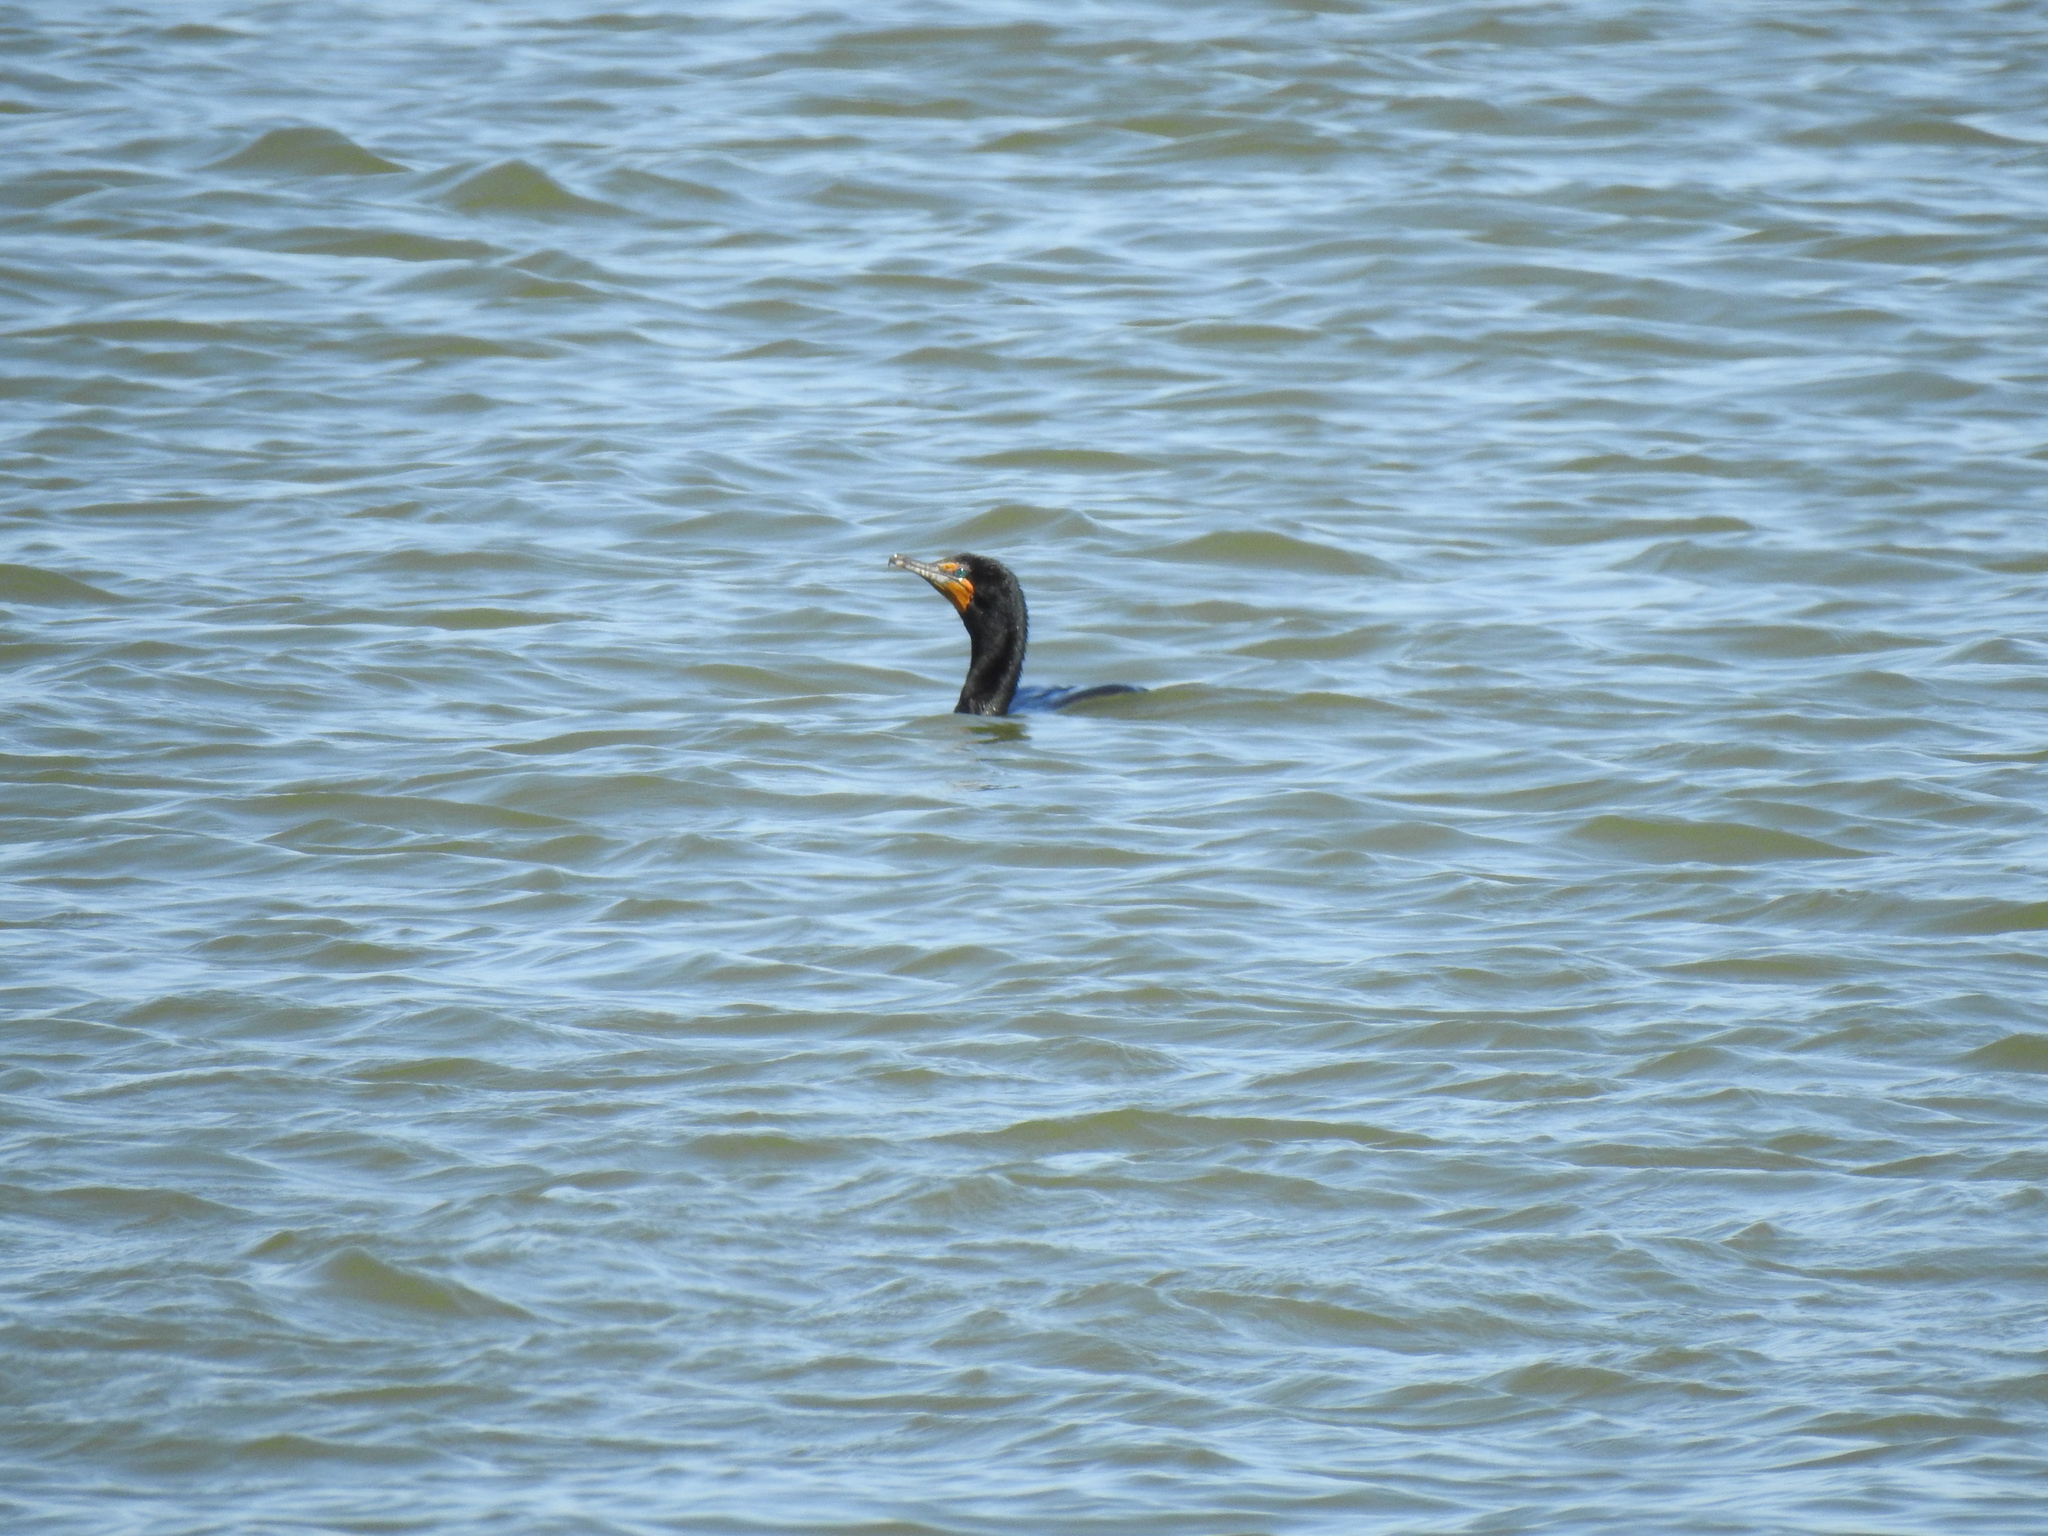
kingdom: Animalia
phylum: Chordata
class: Aves
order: Suliformes
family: Phalacrocoracidae
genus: Phalacrocorax
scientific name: Phalacrocorax auritus
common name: Double-crested cormorant
